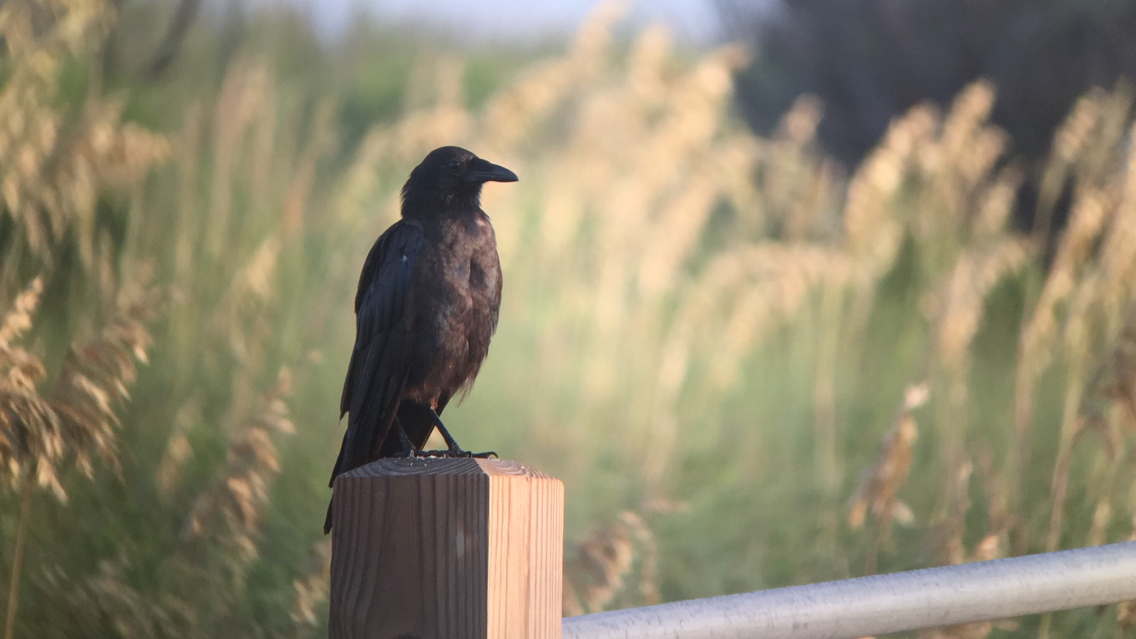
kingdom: Animalia
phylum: Chordata
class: Aves
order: Passeriformes
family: Corvidae
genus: Corvus
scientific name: Corvus
